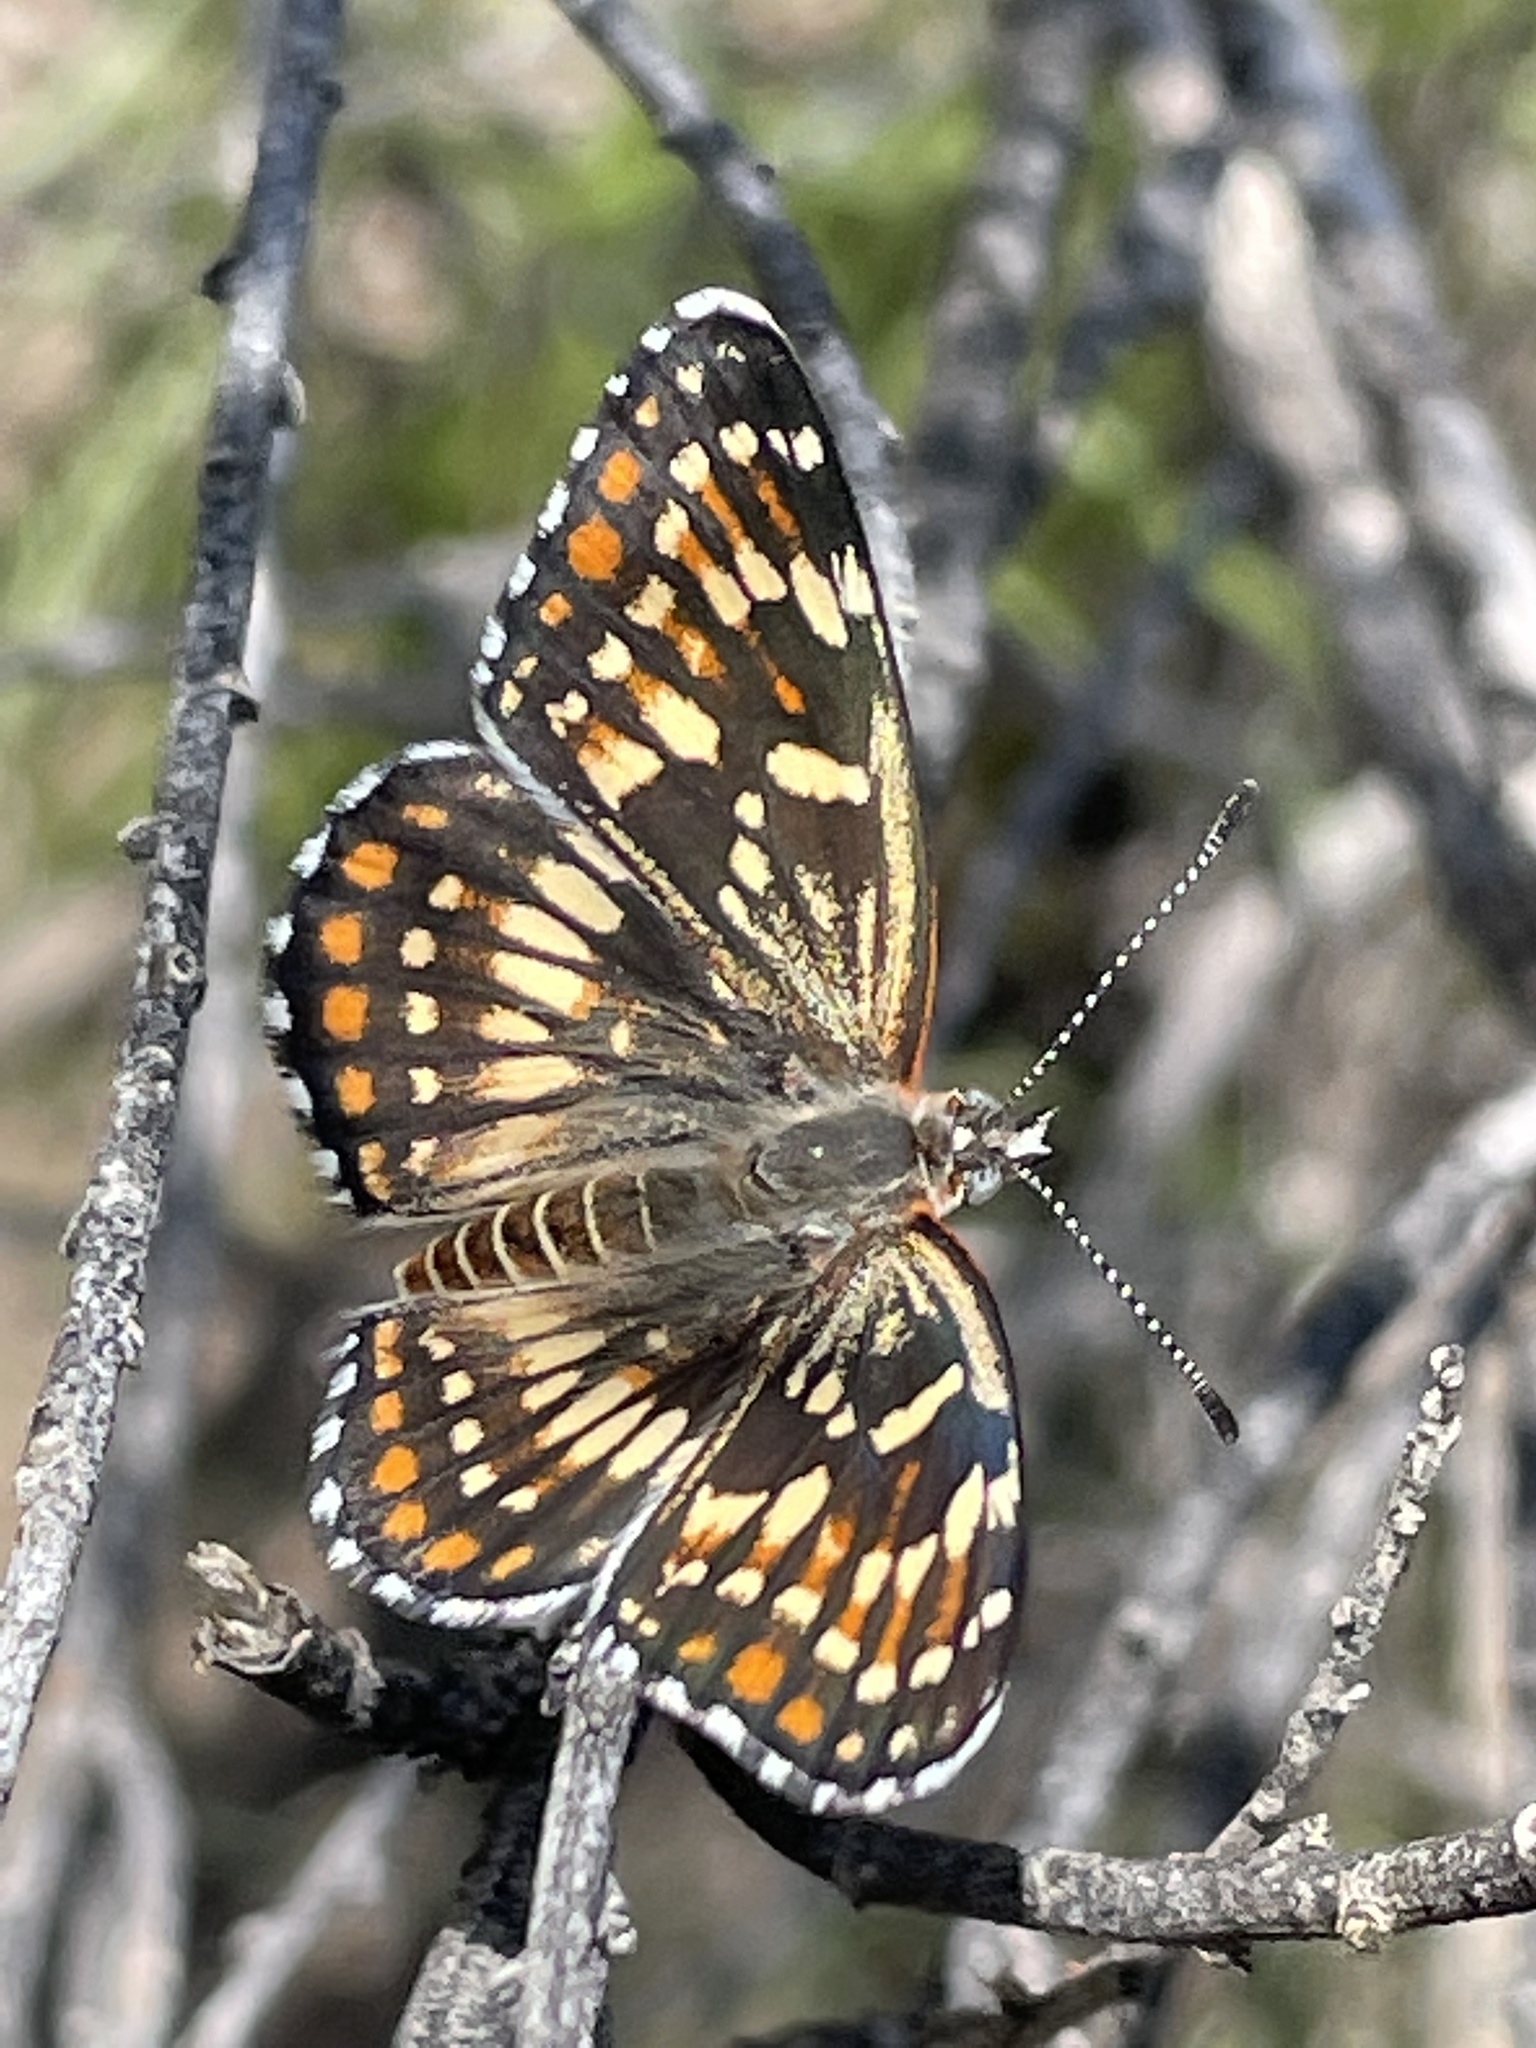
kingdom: Animalia
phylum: Arthropoda
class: Insecta
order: Lepidoptera
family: Nymphalidae
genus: Thessalia
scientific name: Thessalia leanira
